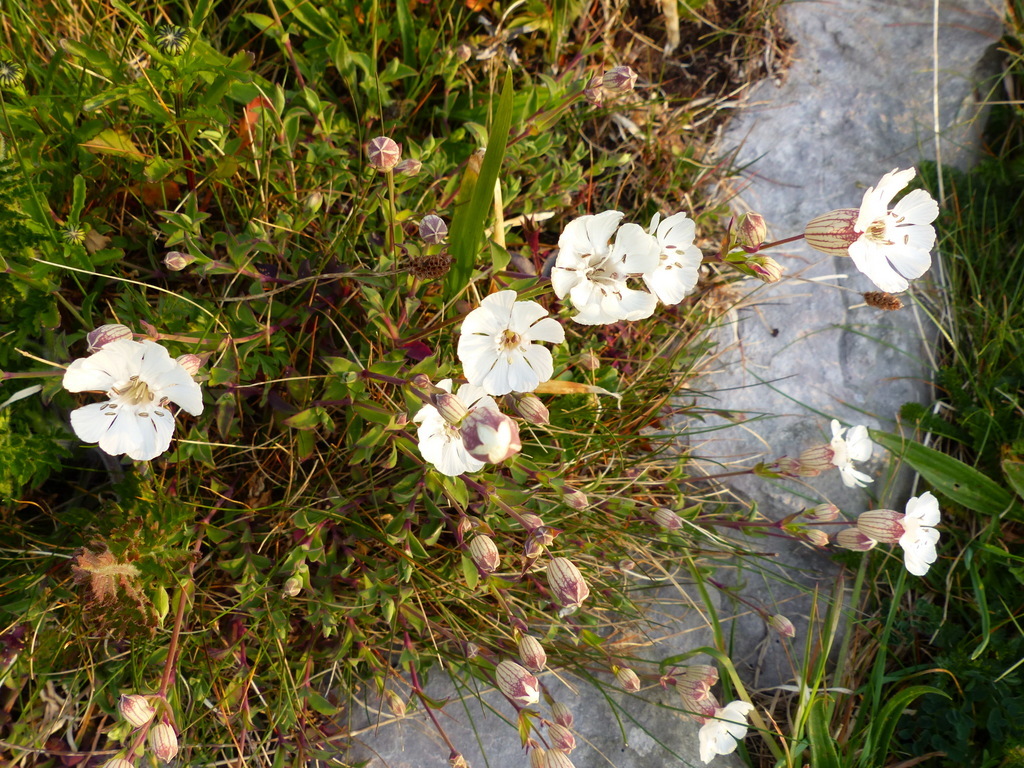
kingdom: Plantae
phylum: Tracheophyta
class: Magnoliopsida
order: Caryophyllales
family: Caryophyllaceae
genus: Silene
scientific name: Silene uniflora
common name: Sea campion
